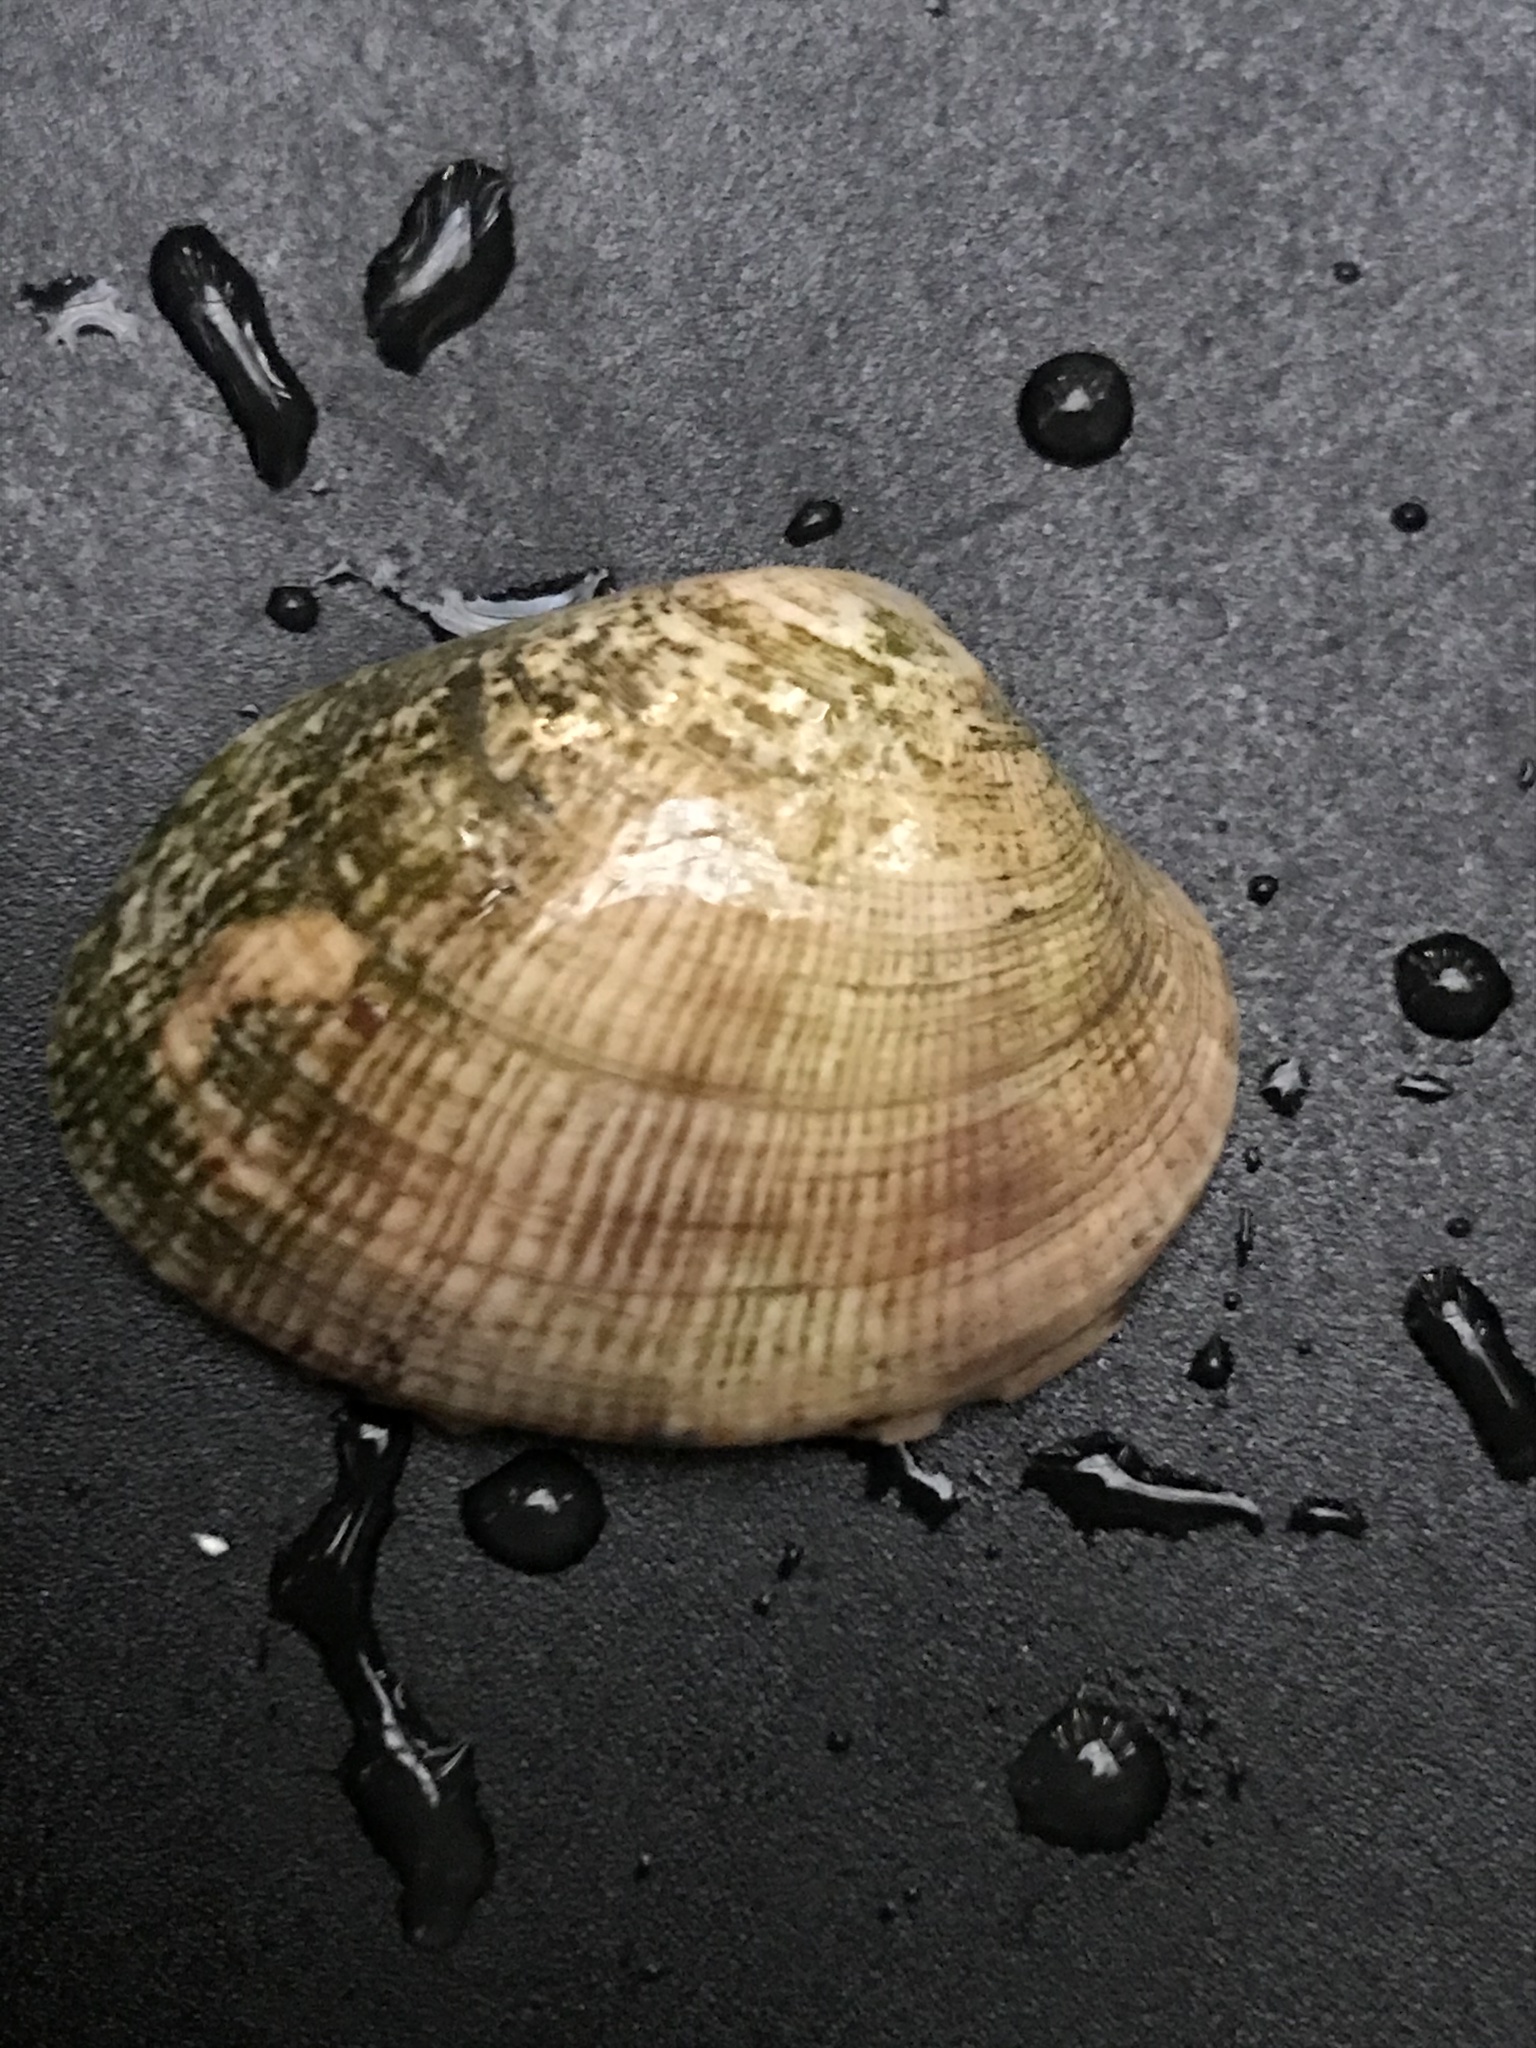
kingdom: Animalia
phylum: Mollusca
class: Bivalvia
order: Venerida
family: Veneridae
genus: Ruditapes
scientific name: Ruditapes philippinarum
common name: Manila clam
